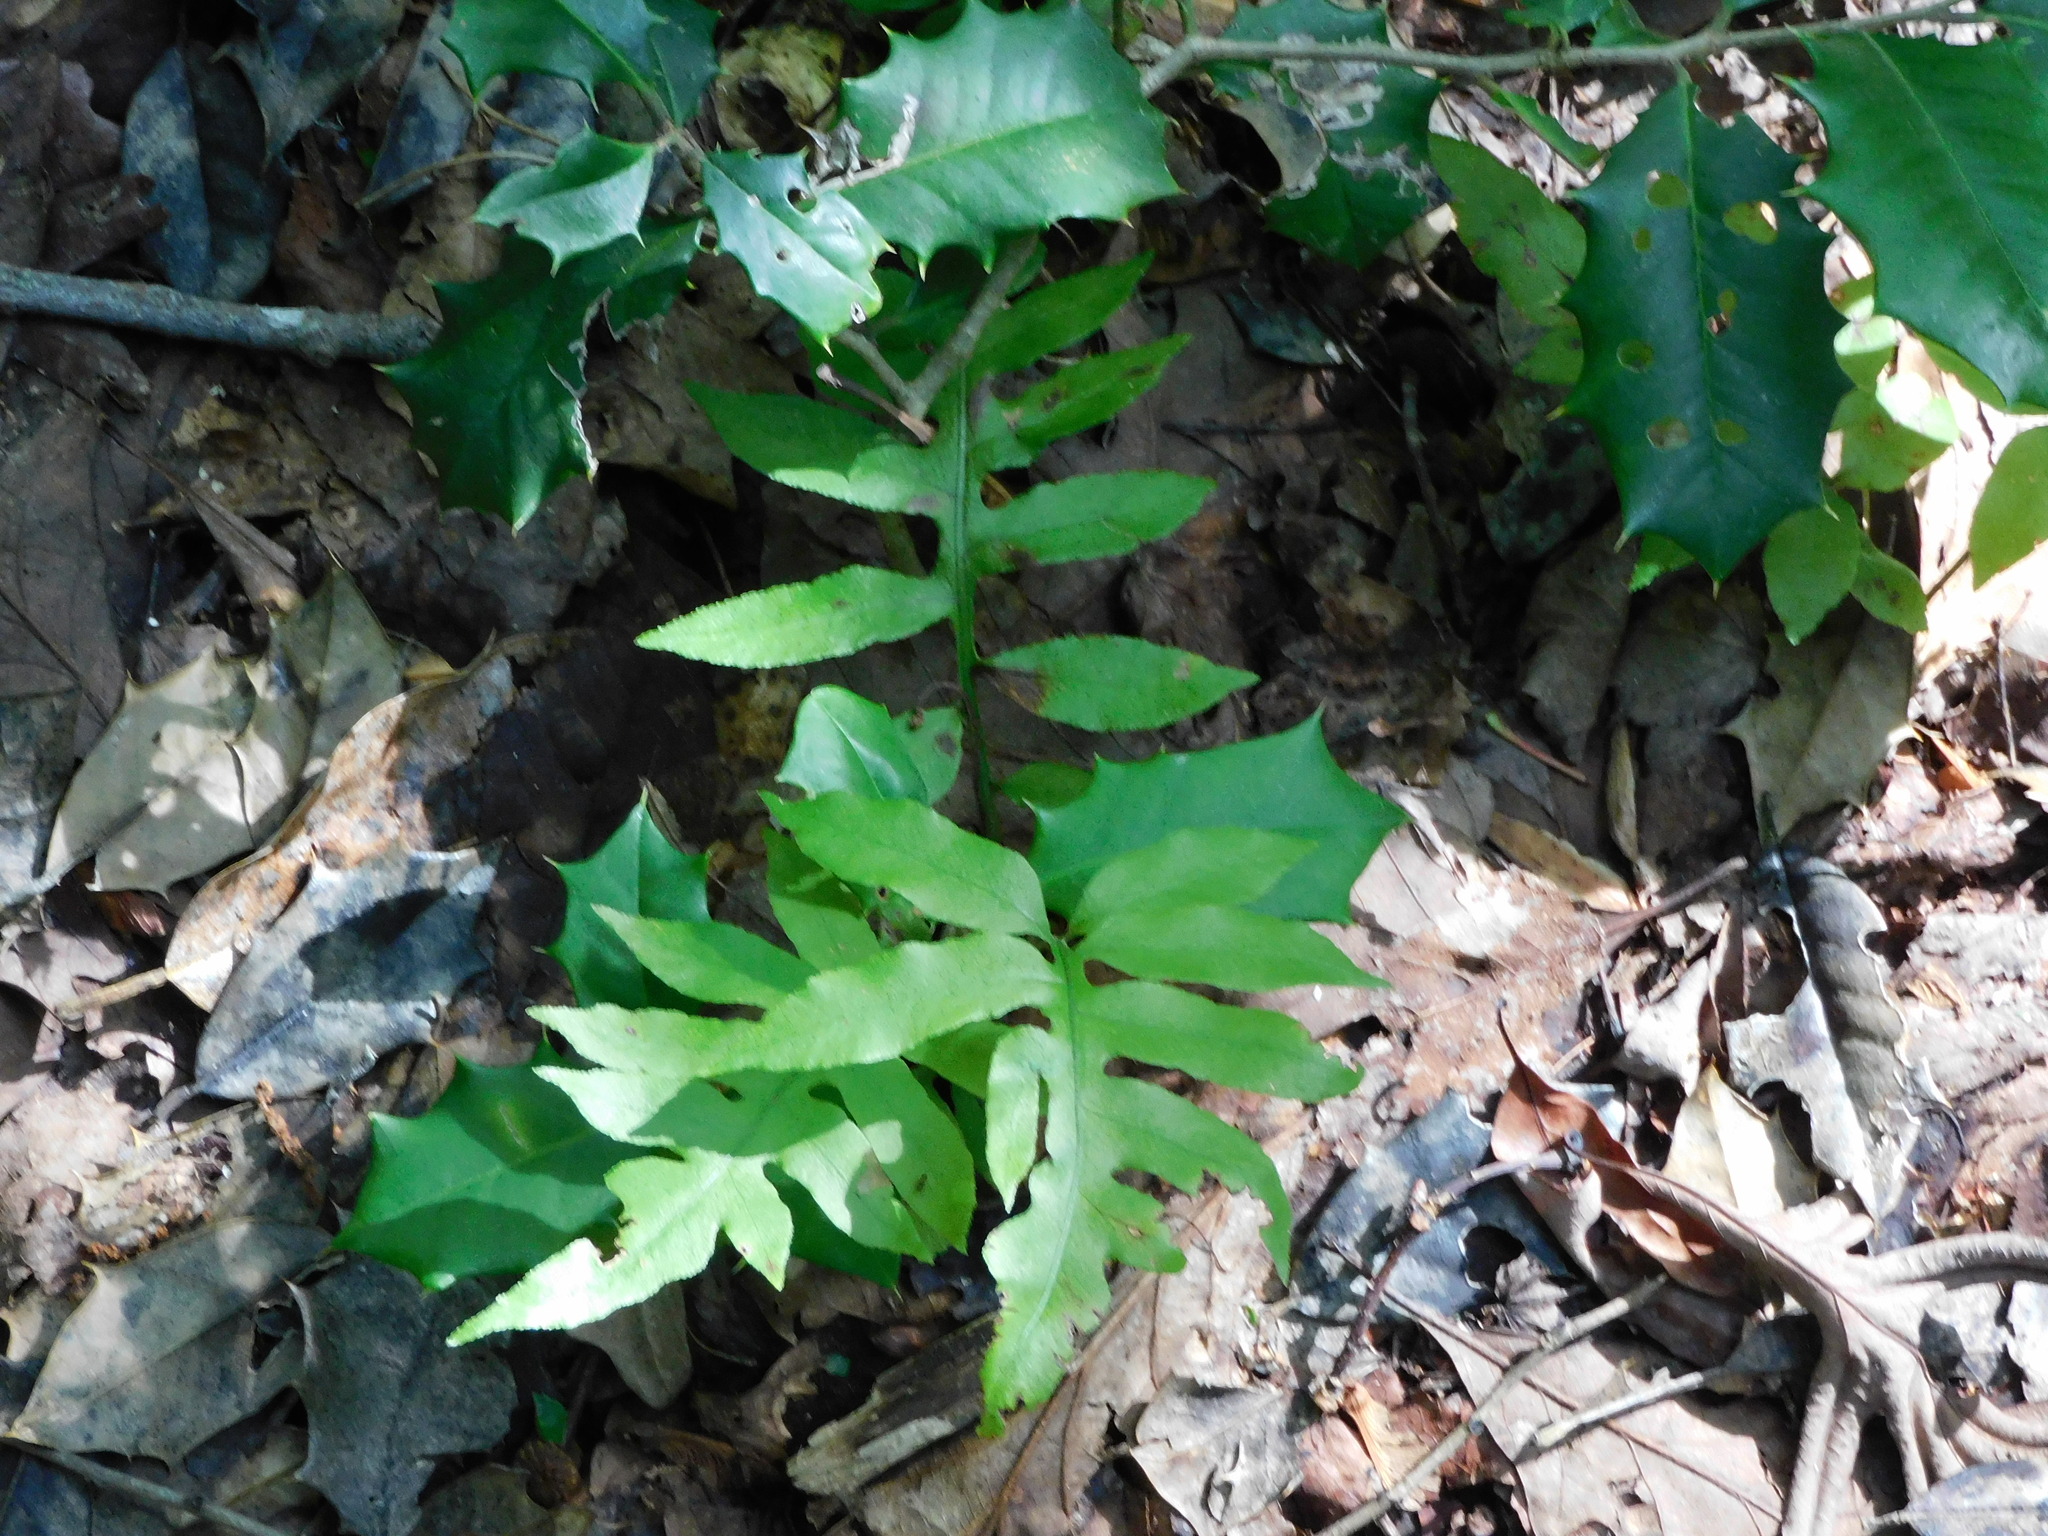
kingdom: Plantae
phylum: Tracheophyta
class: Polypodiopsida
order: Polypodiales
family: Blechnaceae
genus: Lorinseria
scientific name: Lorinseria areolata
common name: Dwarf chain fern
